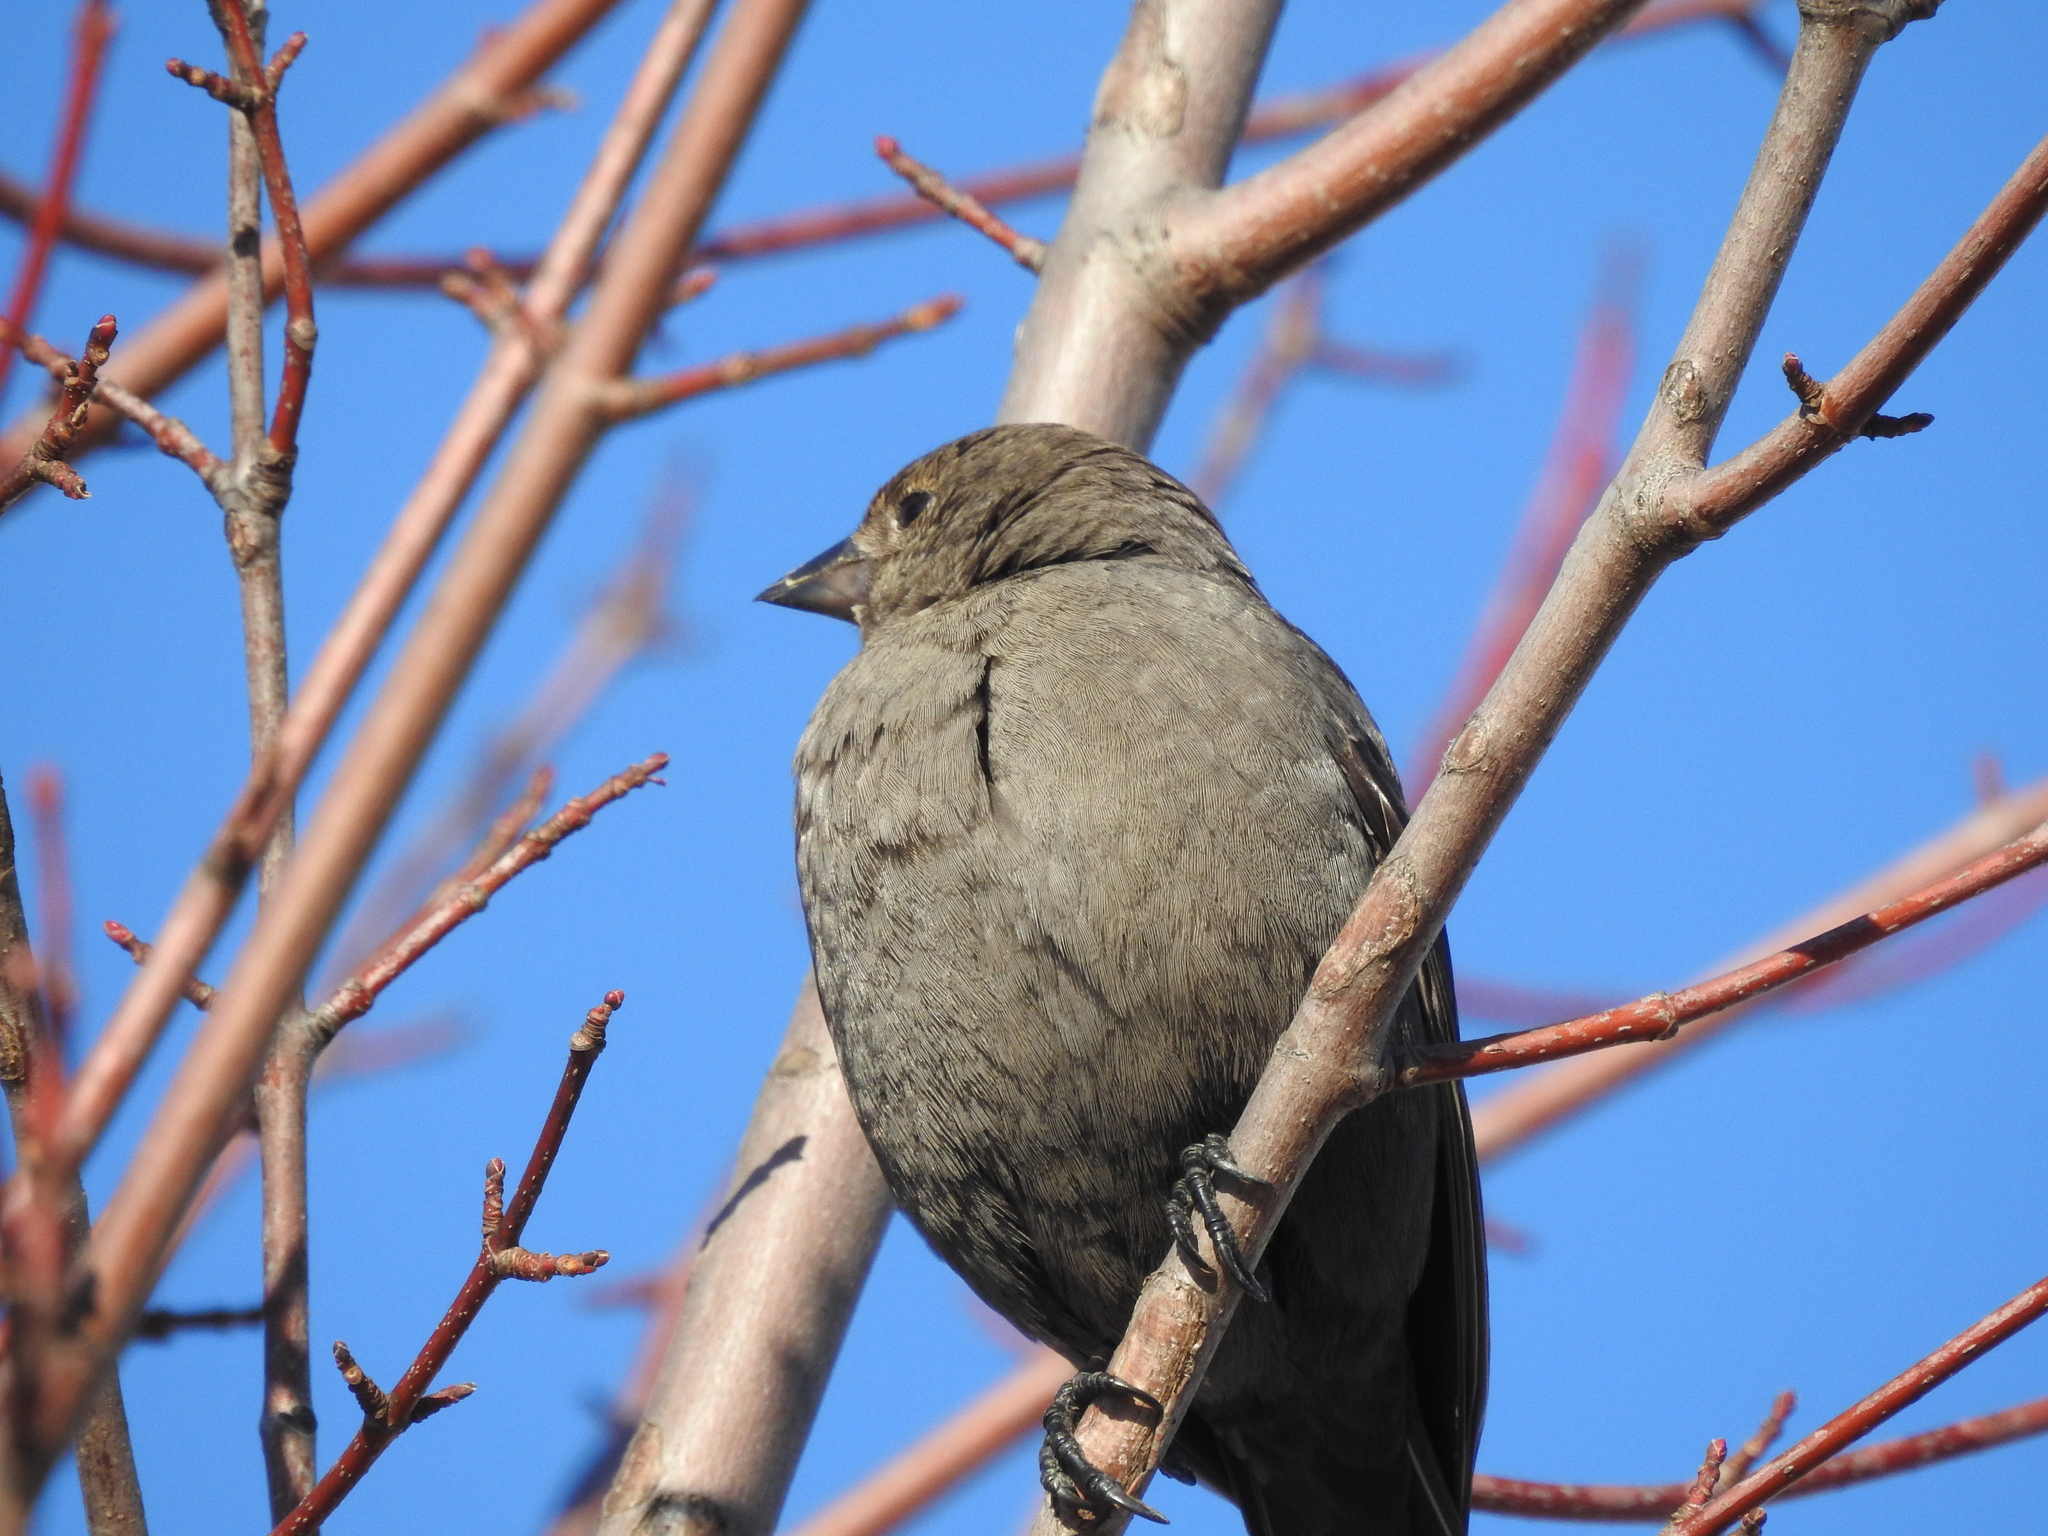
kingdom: Animalia
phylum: Chordata
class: Aves
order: Passeriformes
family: Icteridae
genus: Molothrus
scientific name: Molothrus ater
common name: Brown-headed cowbird
